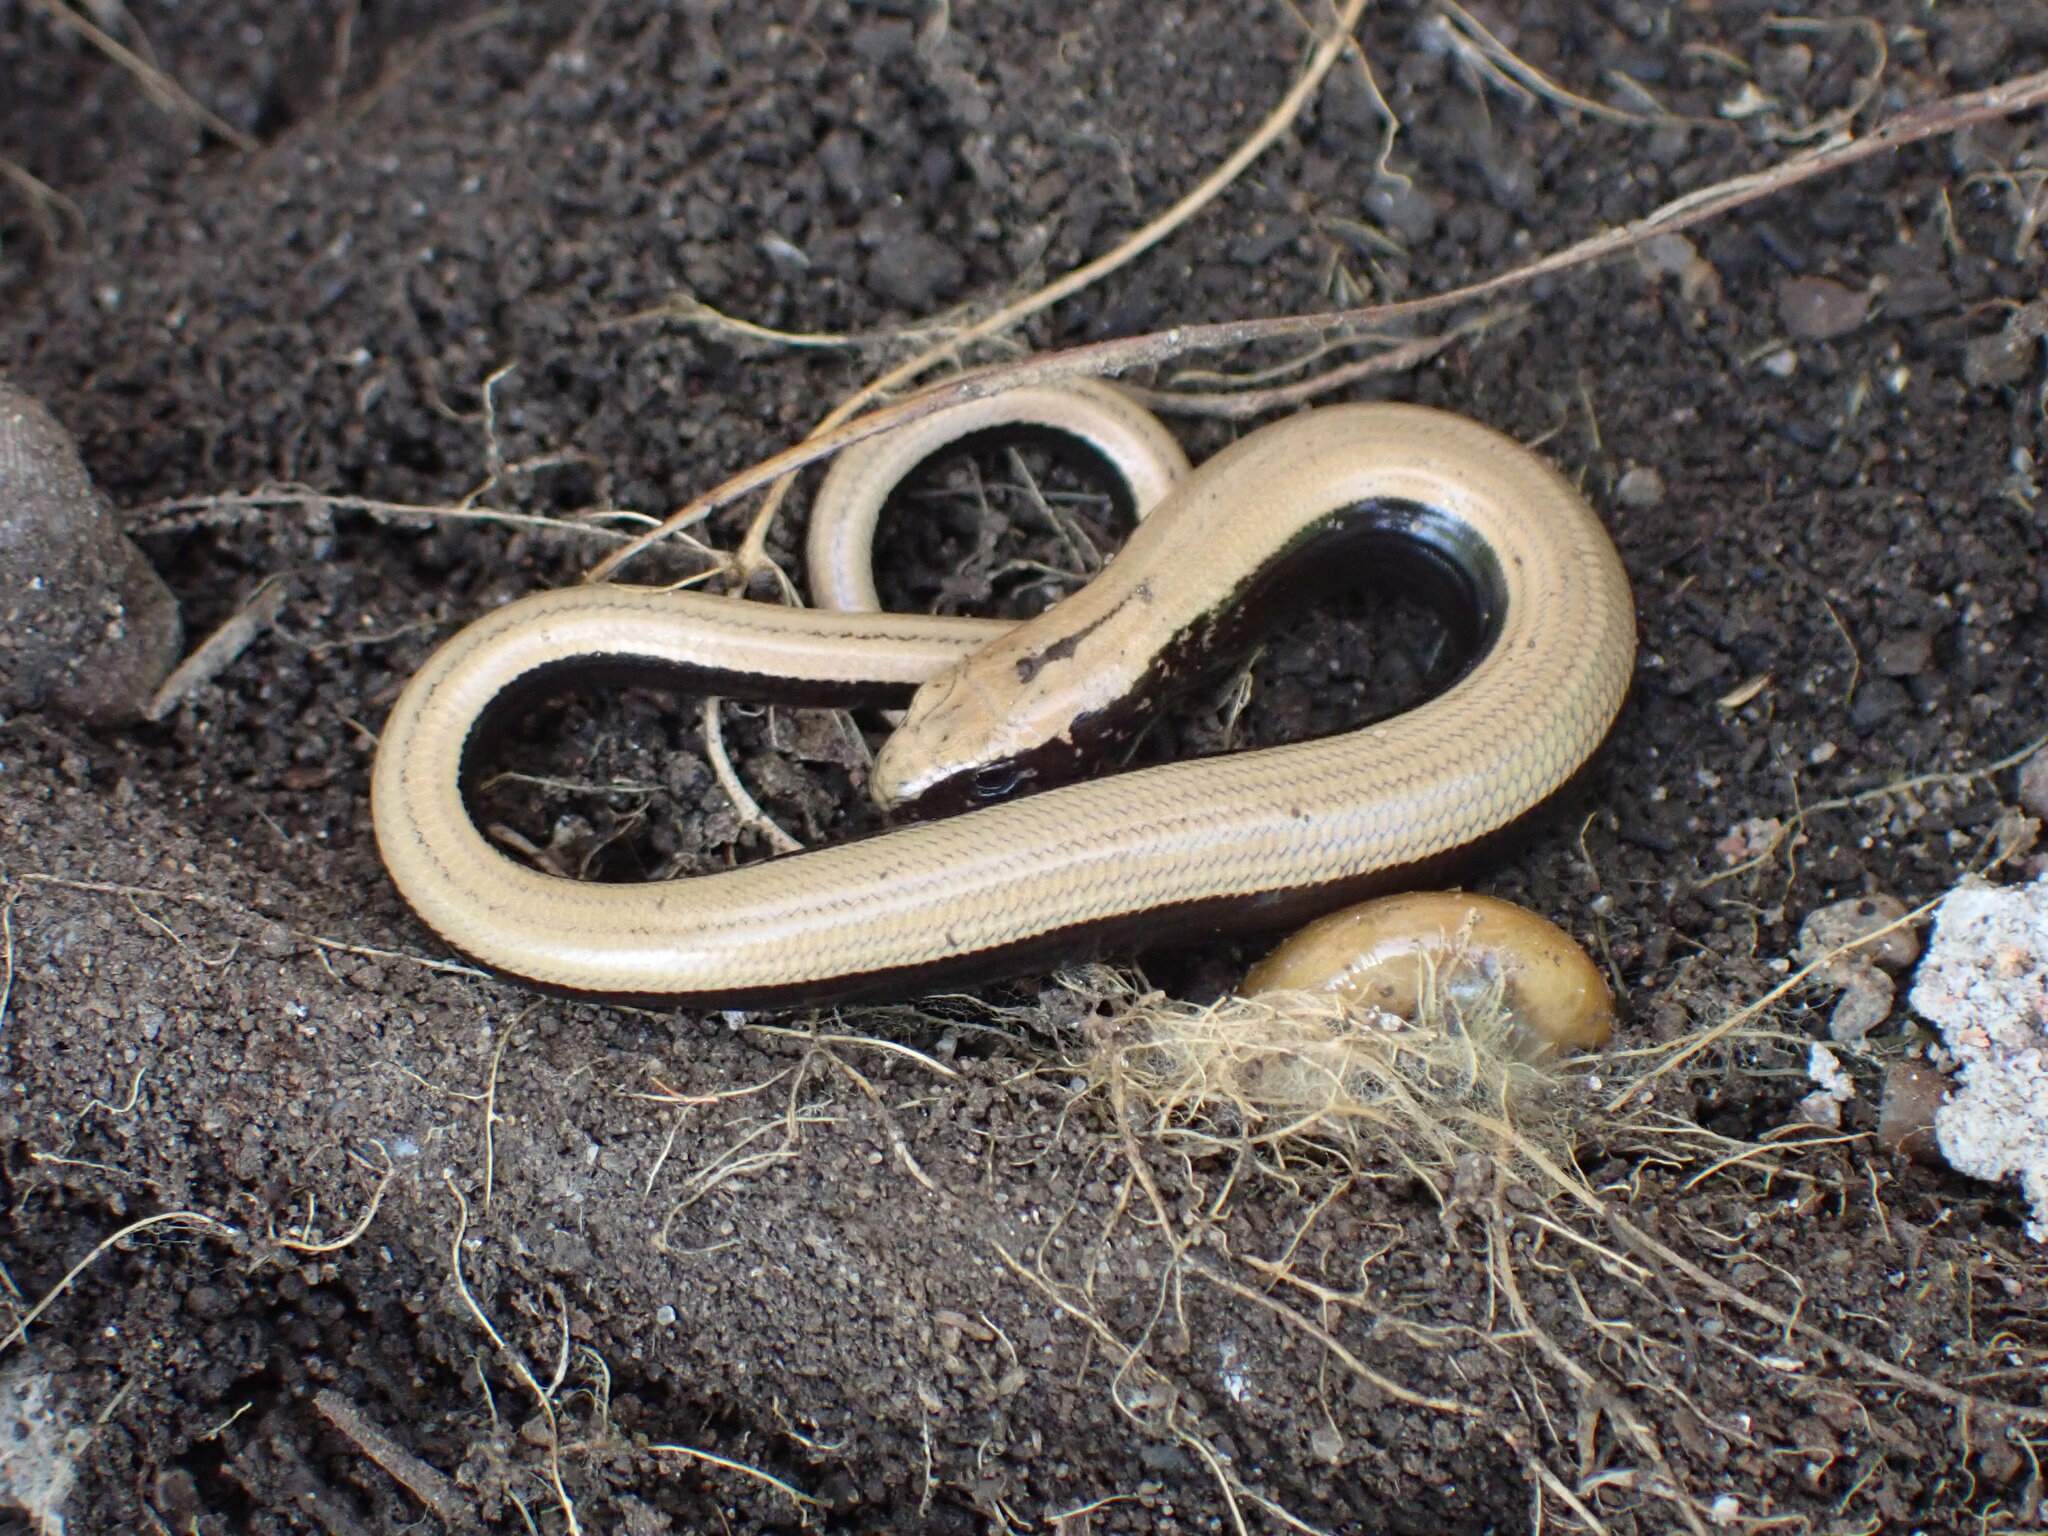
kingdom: Animalia
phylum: Chordata
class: Squamata
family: Anguidae
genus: Anguis
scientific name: Anguis fragilis
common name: Slow worm
